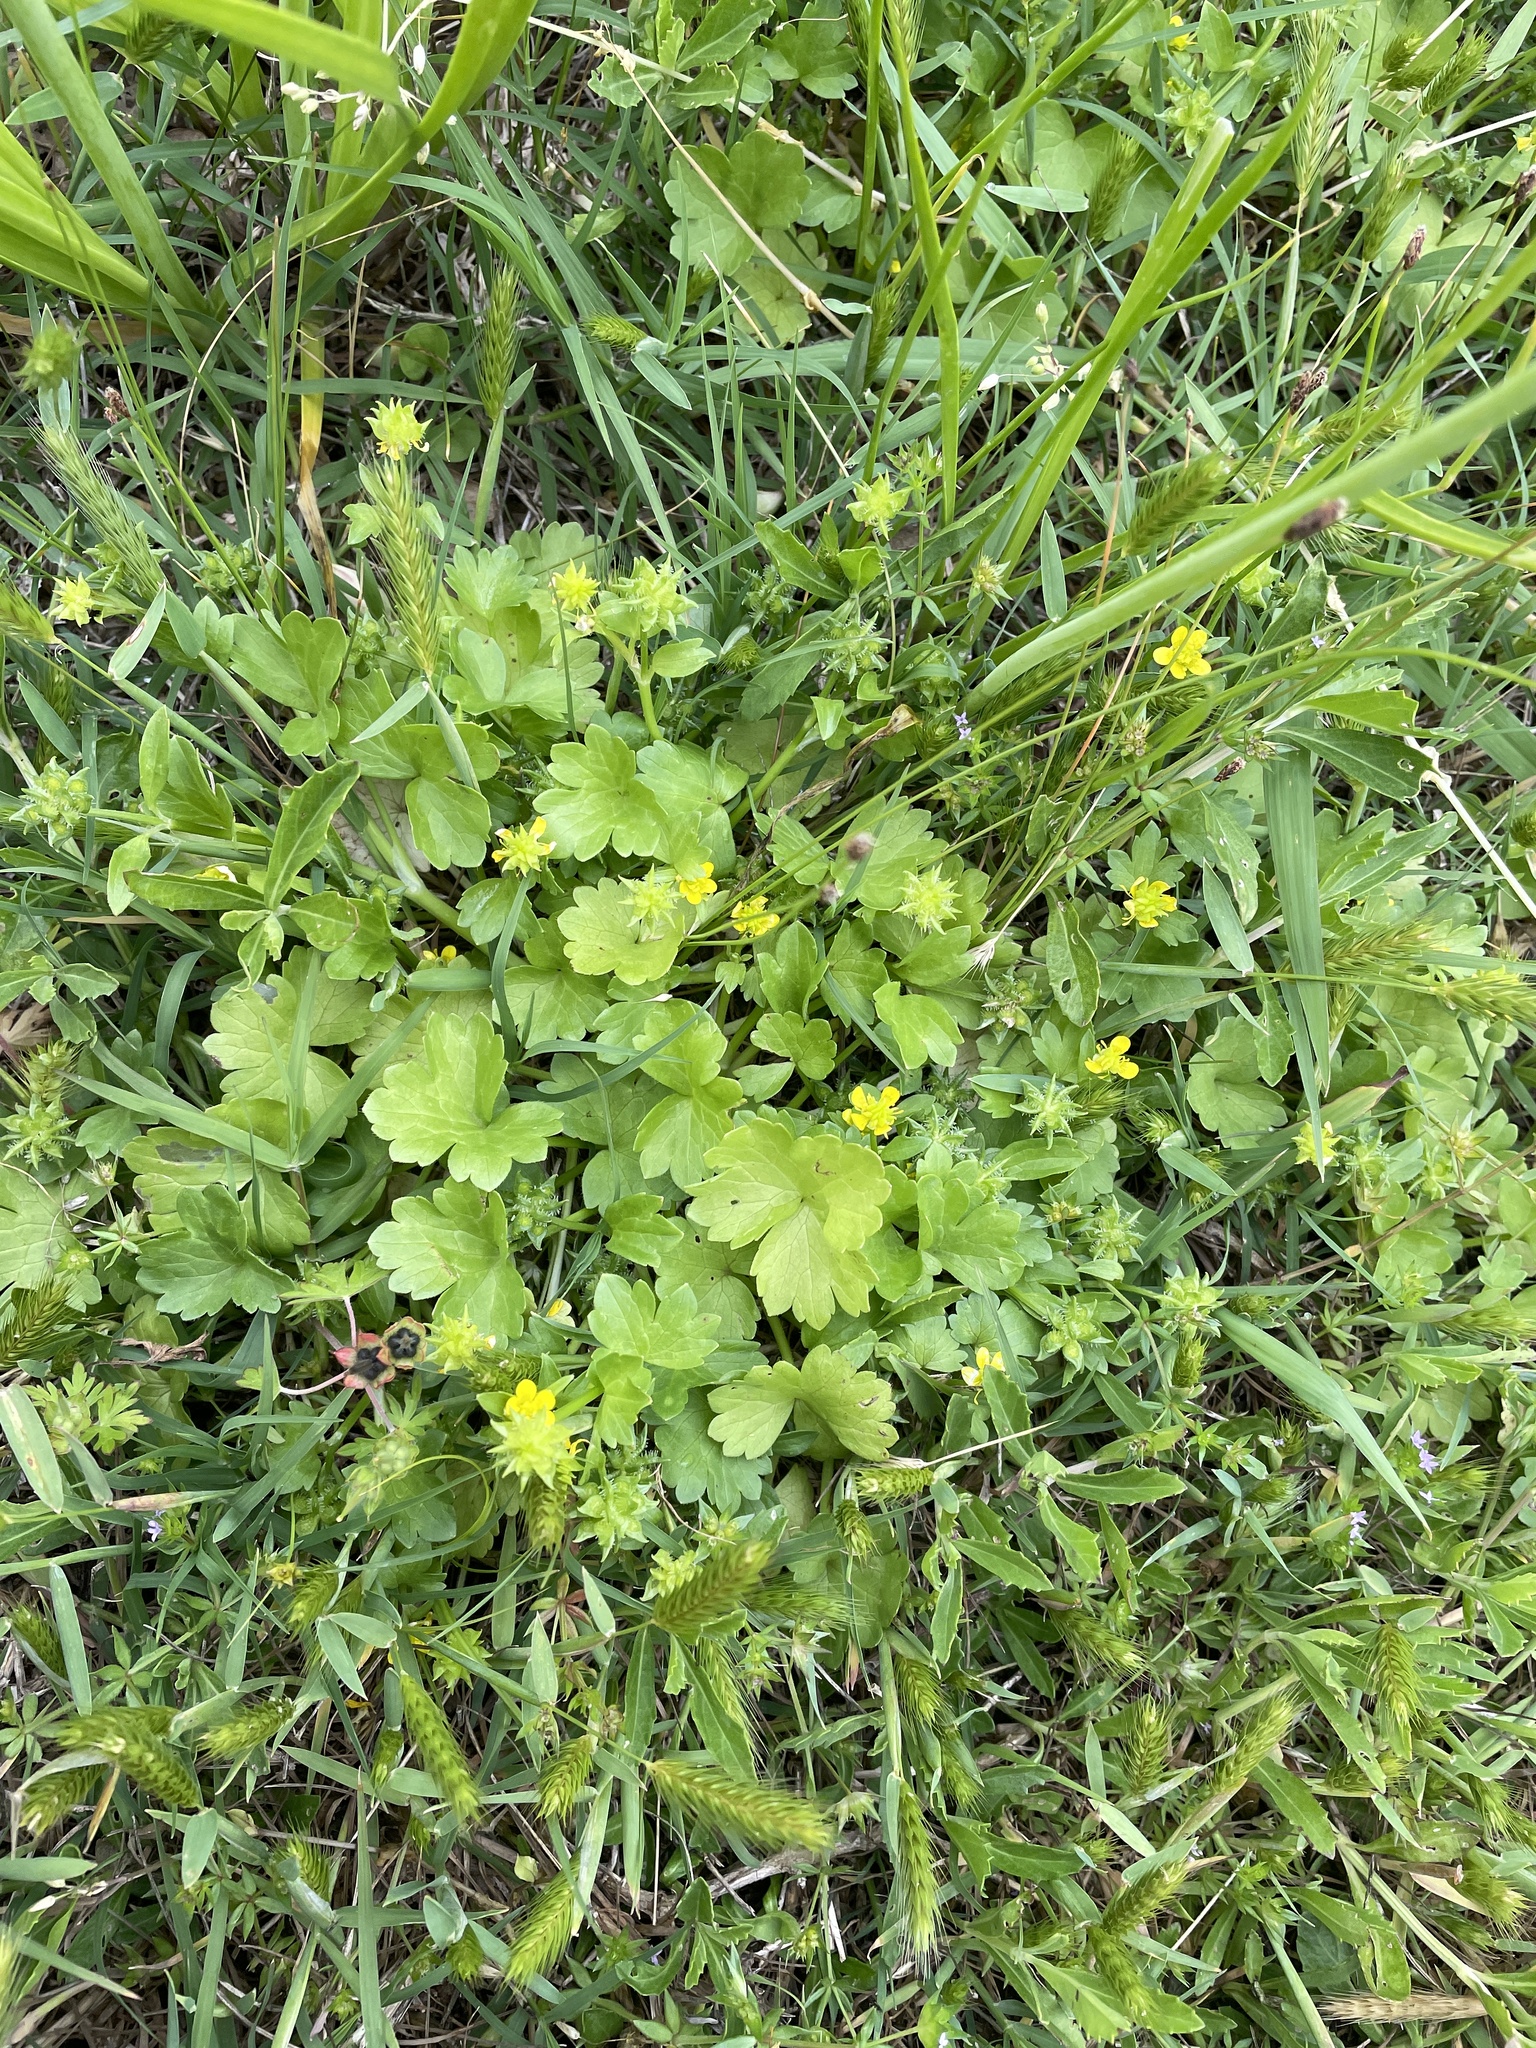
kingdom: Plantae
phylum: Tracheophyta
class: Magnoliopsida
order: Ranunculales
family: Ranunculaceae
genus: Ranunculus
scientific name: Ranunculus muricatus
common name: Rough-fruited buttercup
